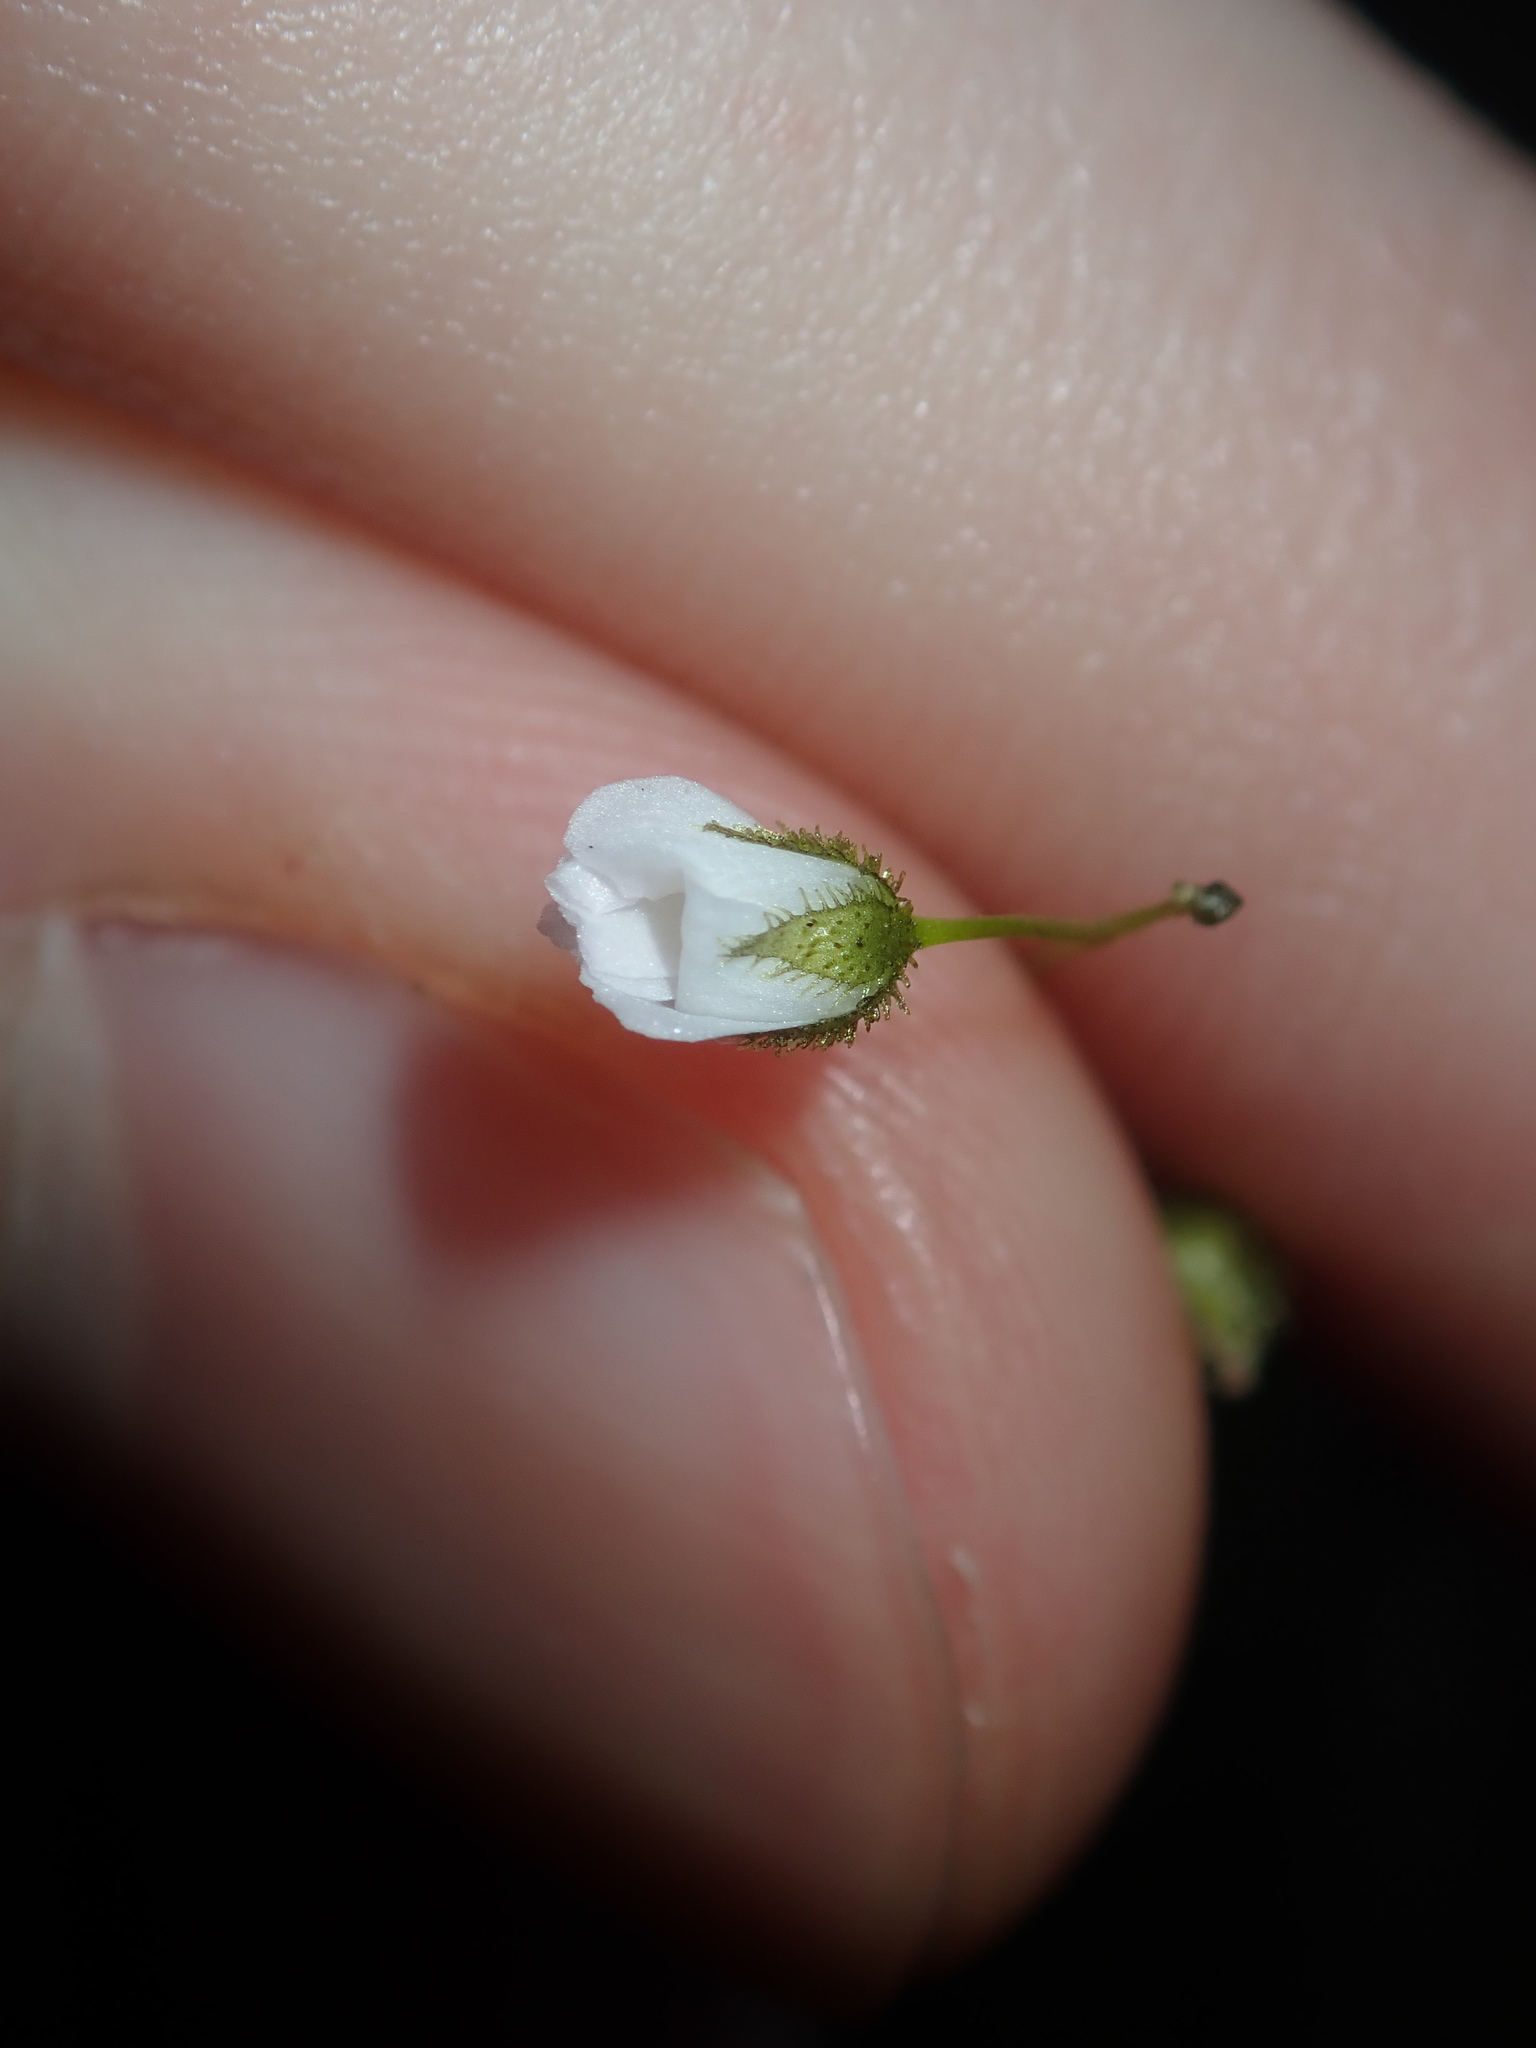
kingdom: Plantae
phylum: Tracheophyta
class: Magnoliopsida
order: Caryophyllales
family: Droseraceae
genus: Drosera
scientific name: Drosera peltata
